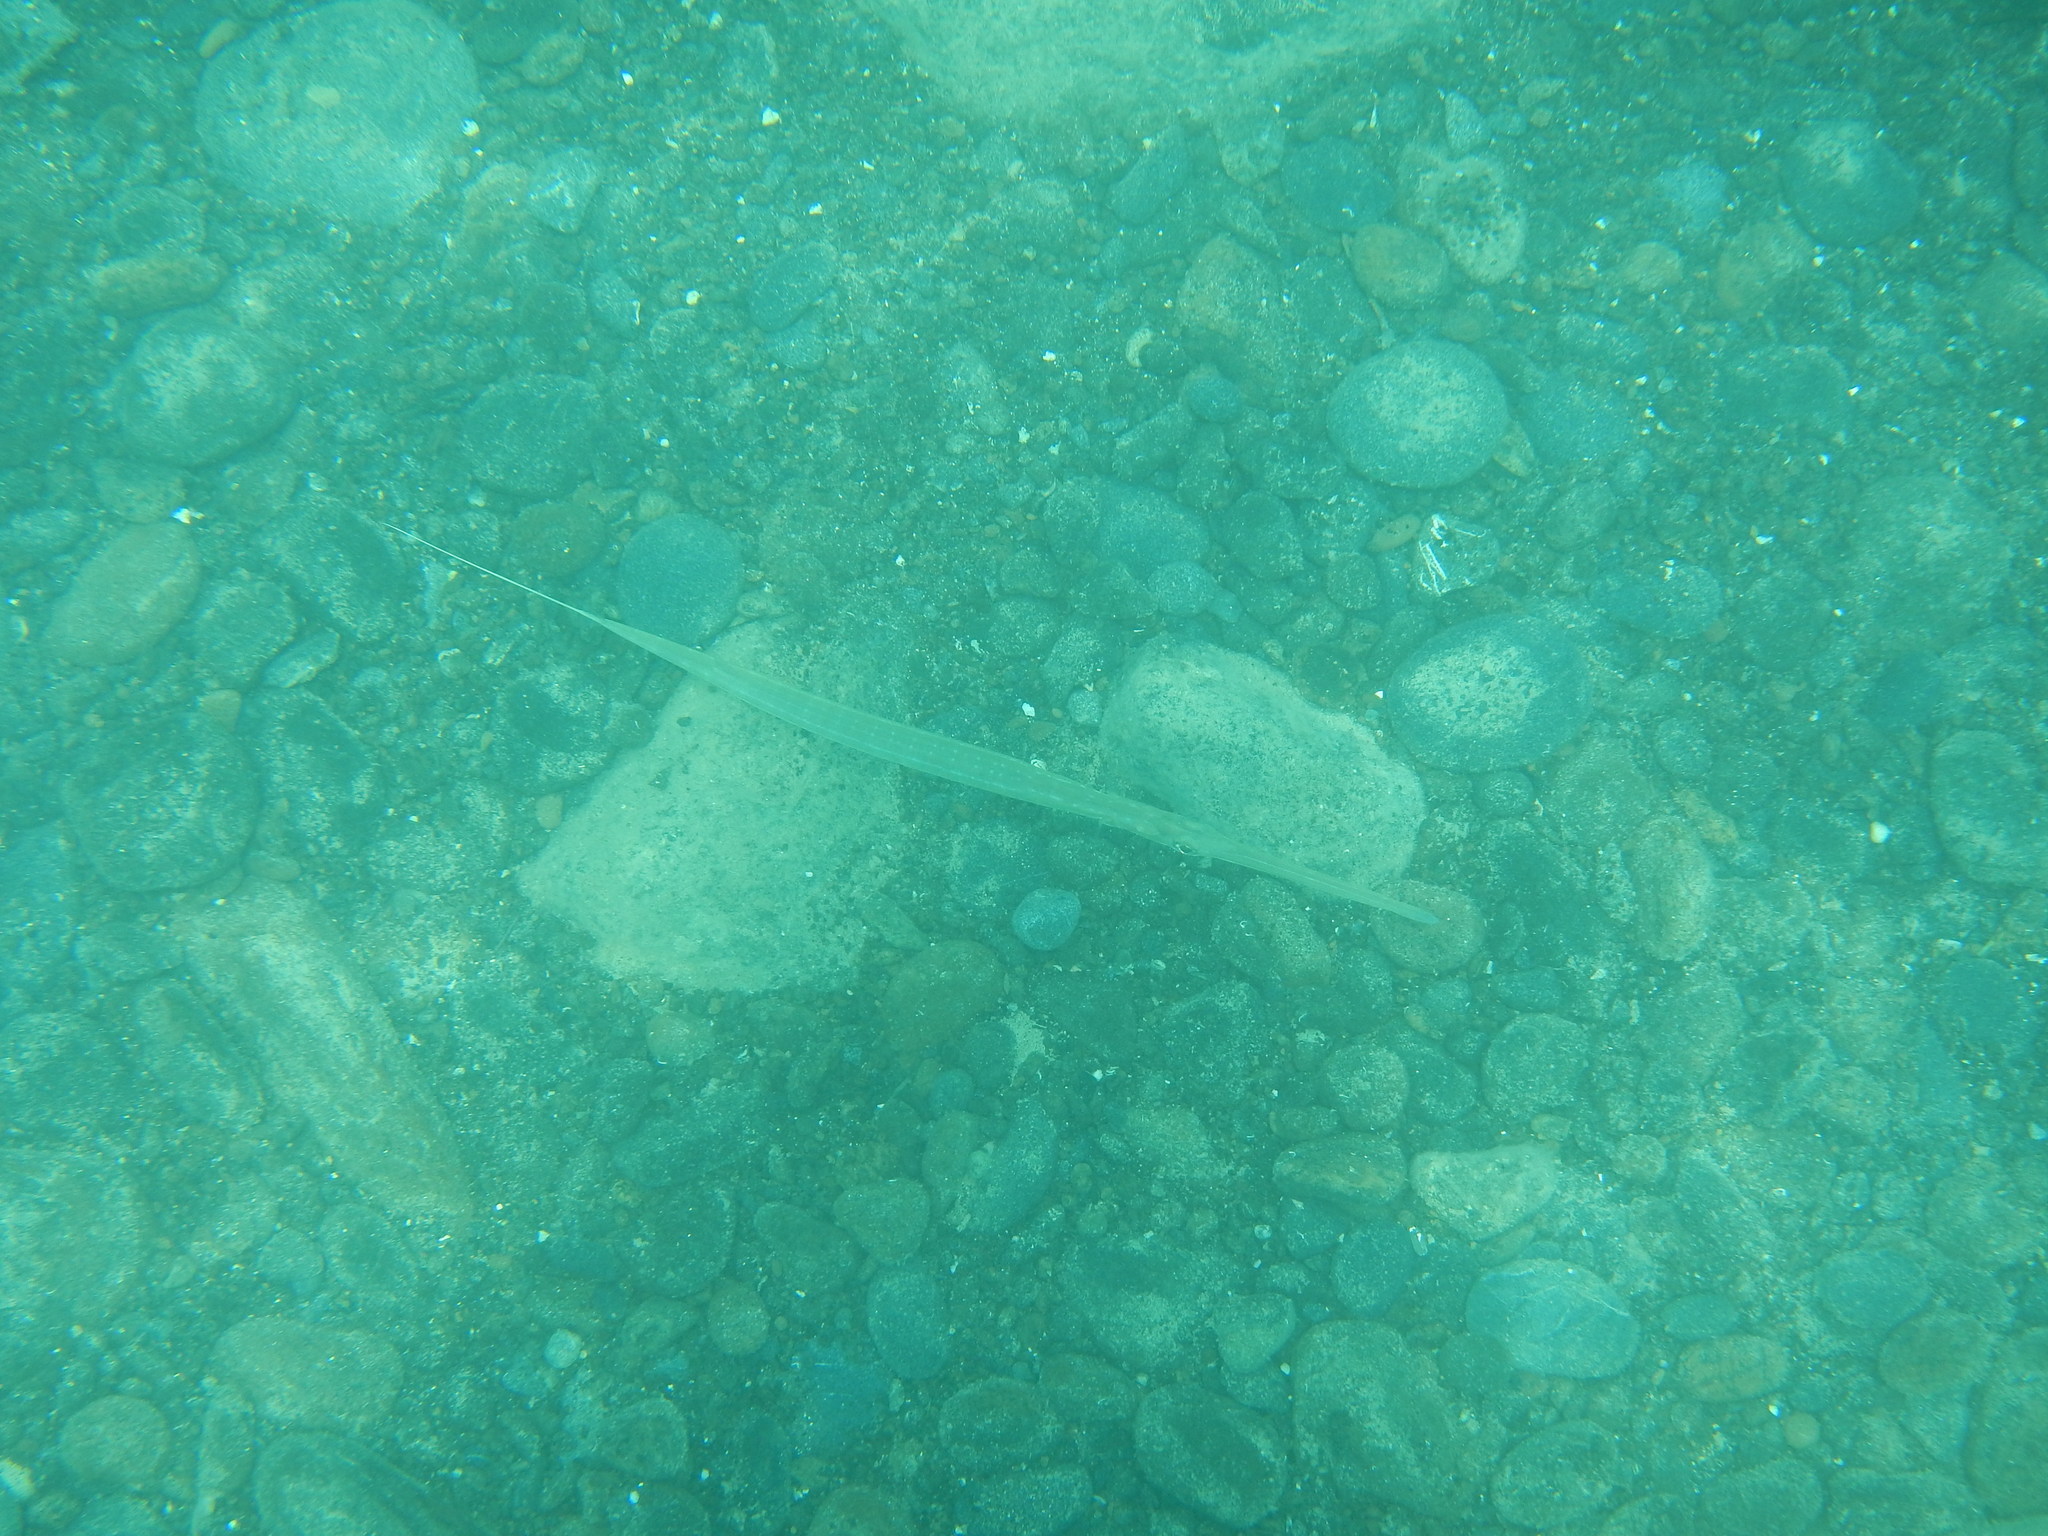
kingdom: Animalia
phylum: Chordata
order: Syngnathiformes
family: Fistulariidae
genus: Fistularia
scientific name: Fistularia commersonii
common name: Bluespotted cornetfish
